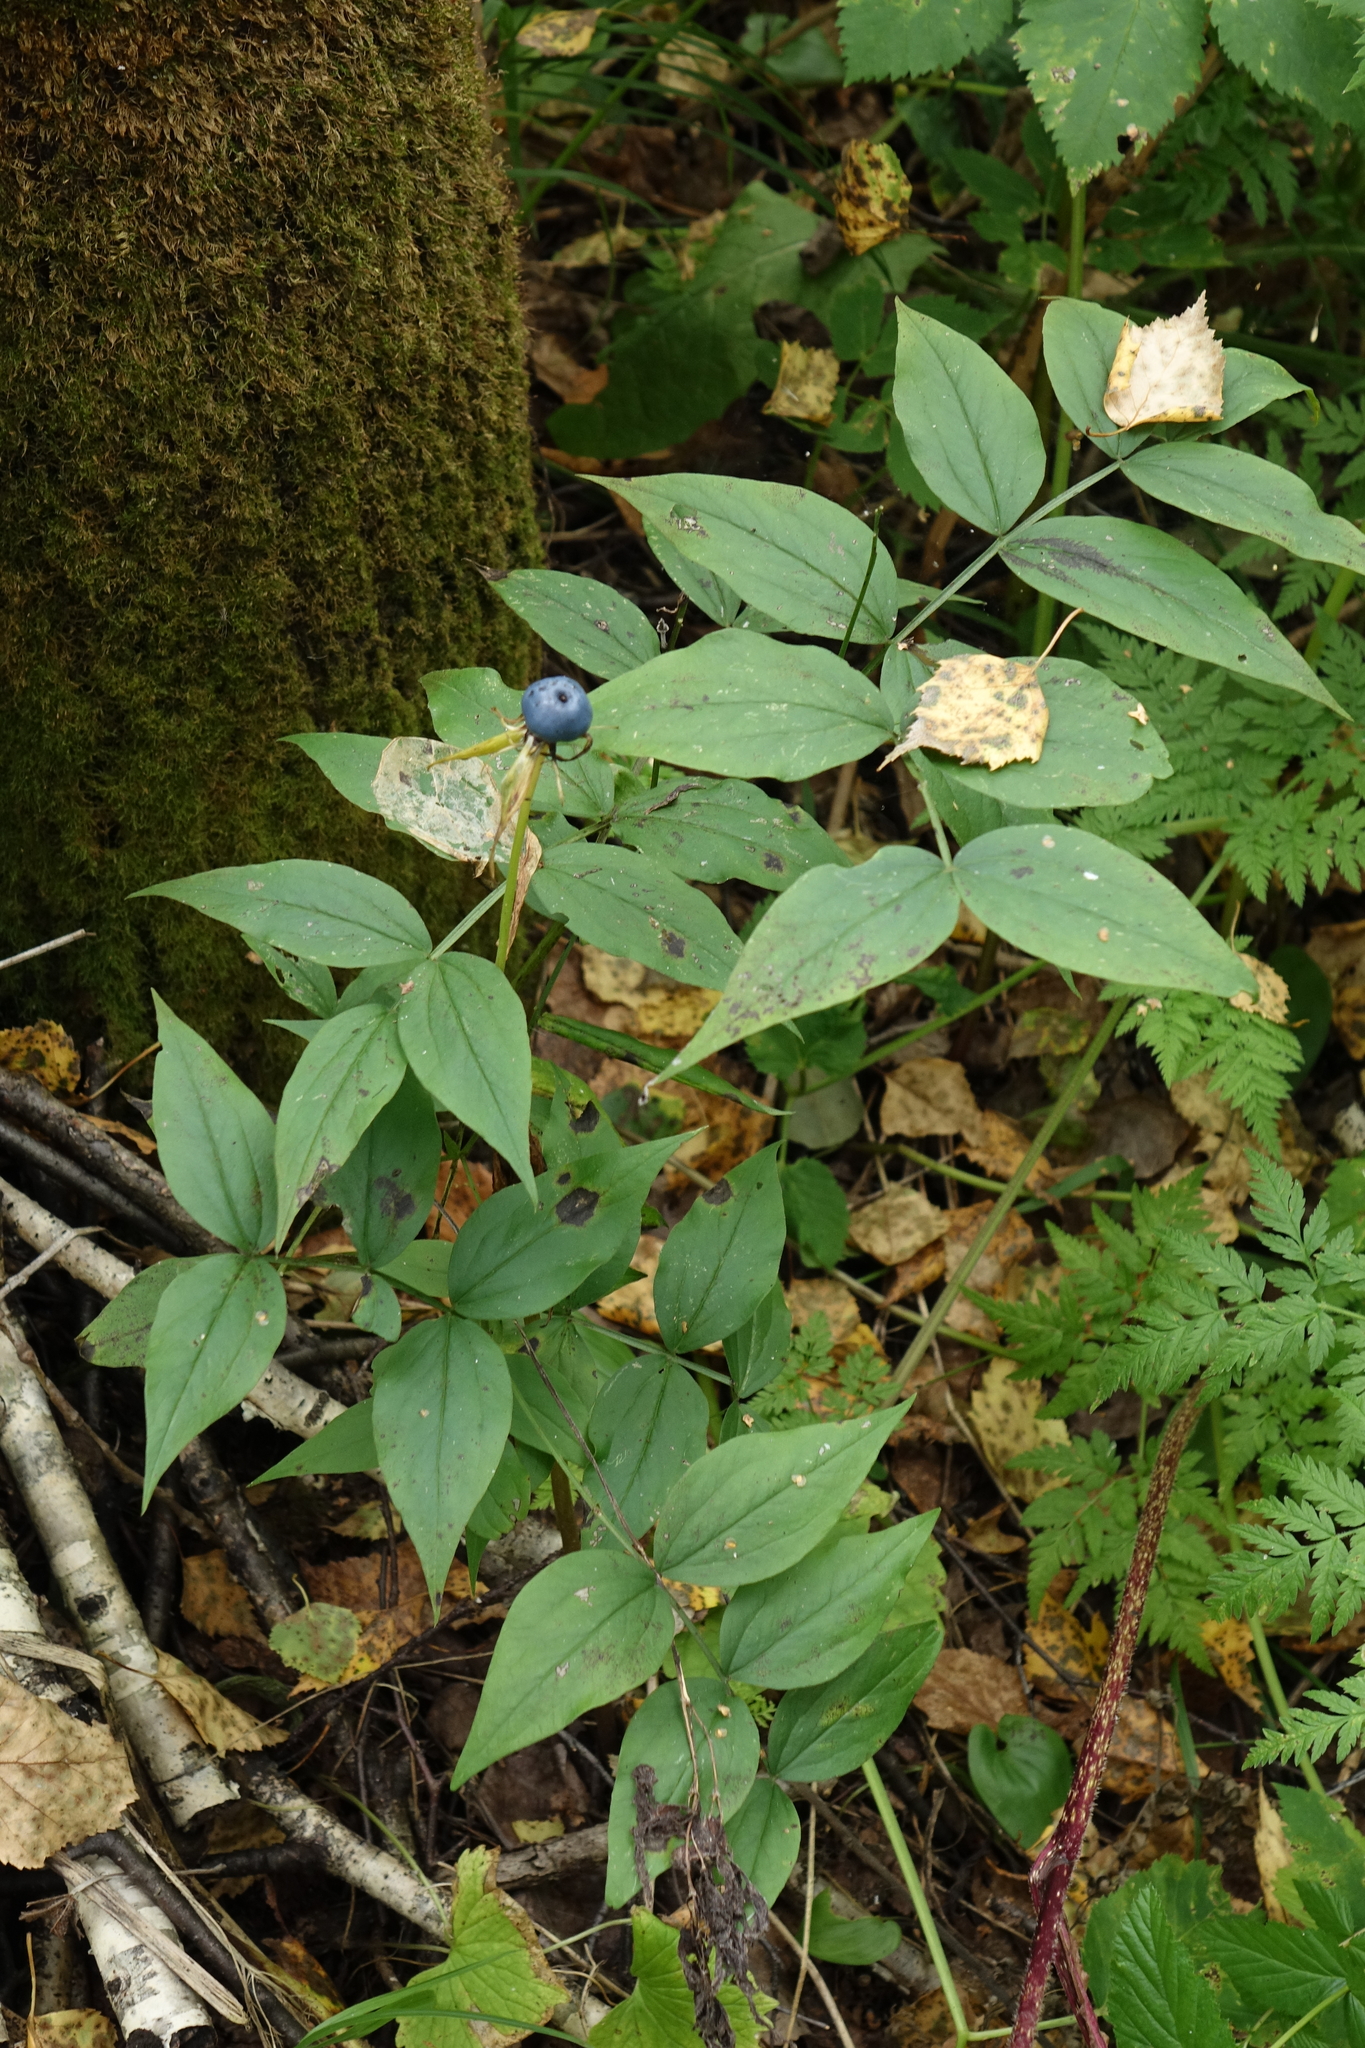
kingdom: Plantae
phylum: Tracheophyta
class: Magnoliopsida
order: Fabales
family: Fabaceae
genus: Lathyrus
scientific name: Lathyrus vernus
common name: Spring pea
